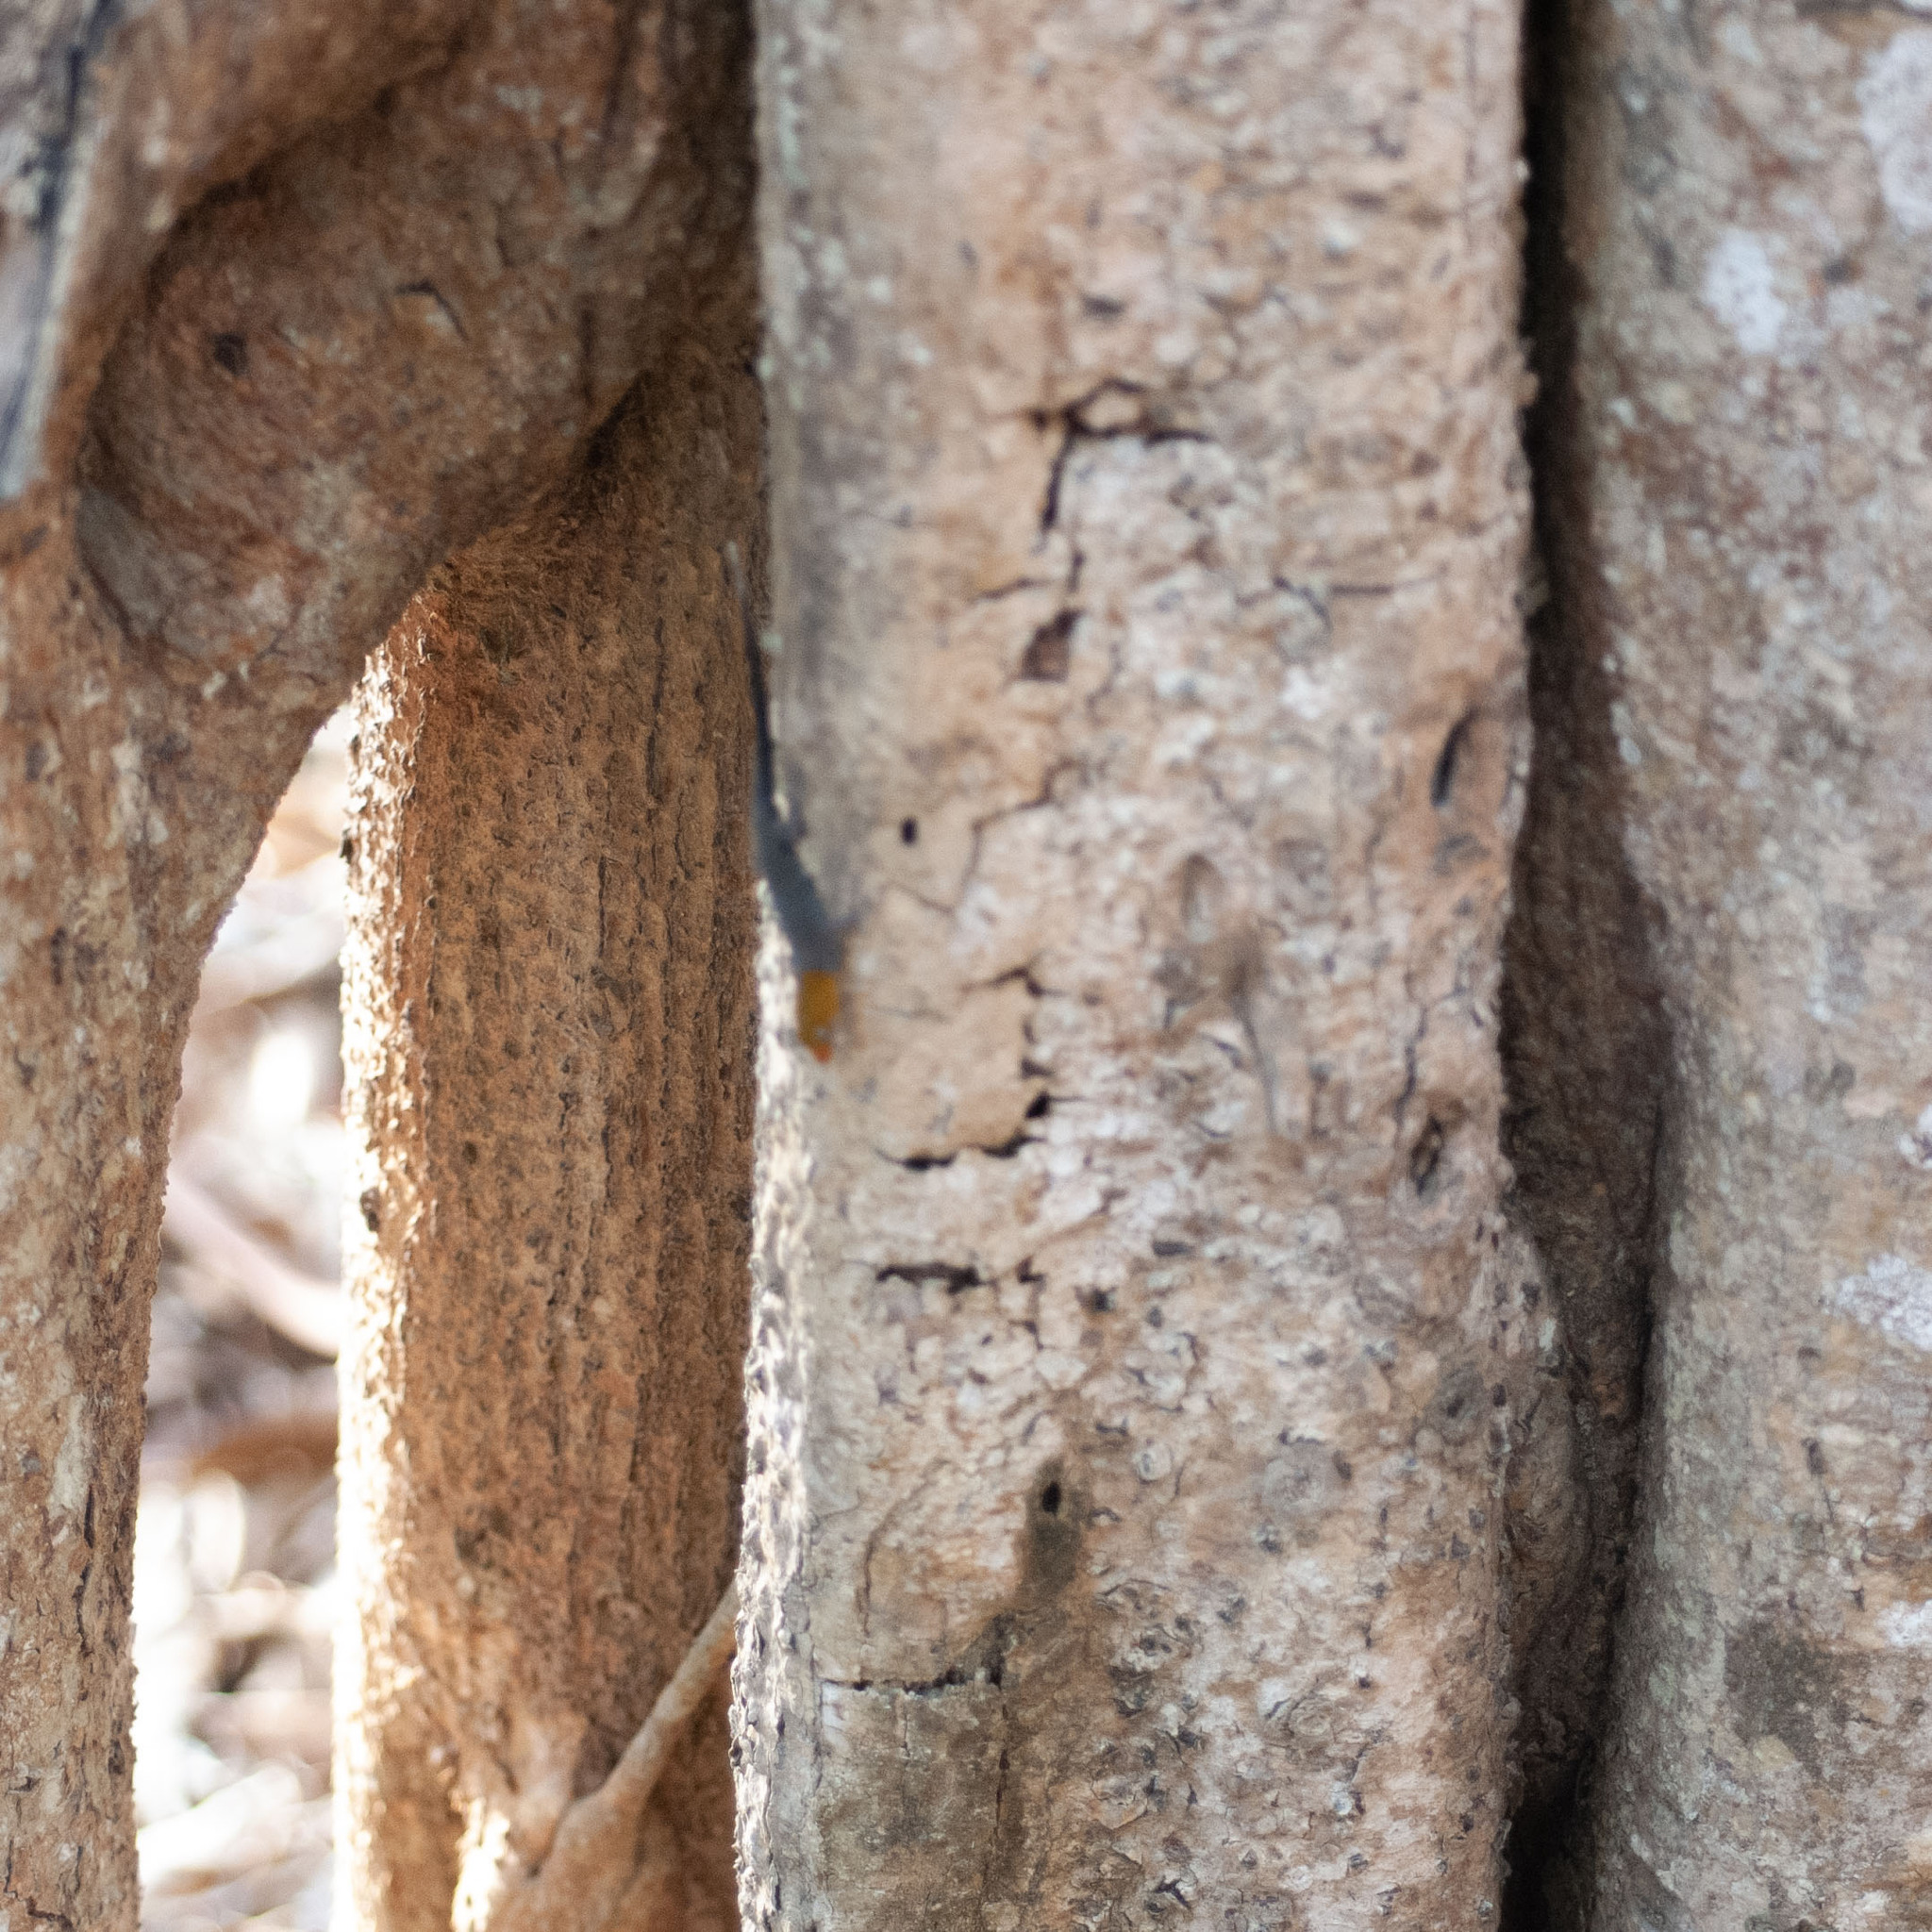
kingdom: Animalia
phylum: Chordata
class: Squamata
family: Sphaerodactylidae
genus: Gonatodes
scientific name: Gonatodes albogularis
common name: Yellow-headed gecko
